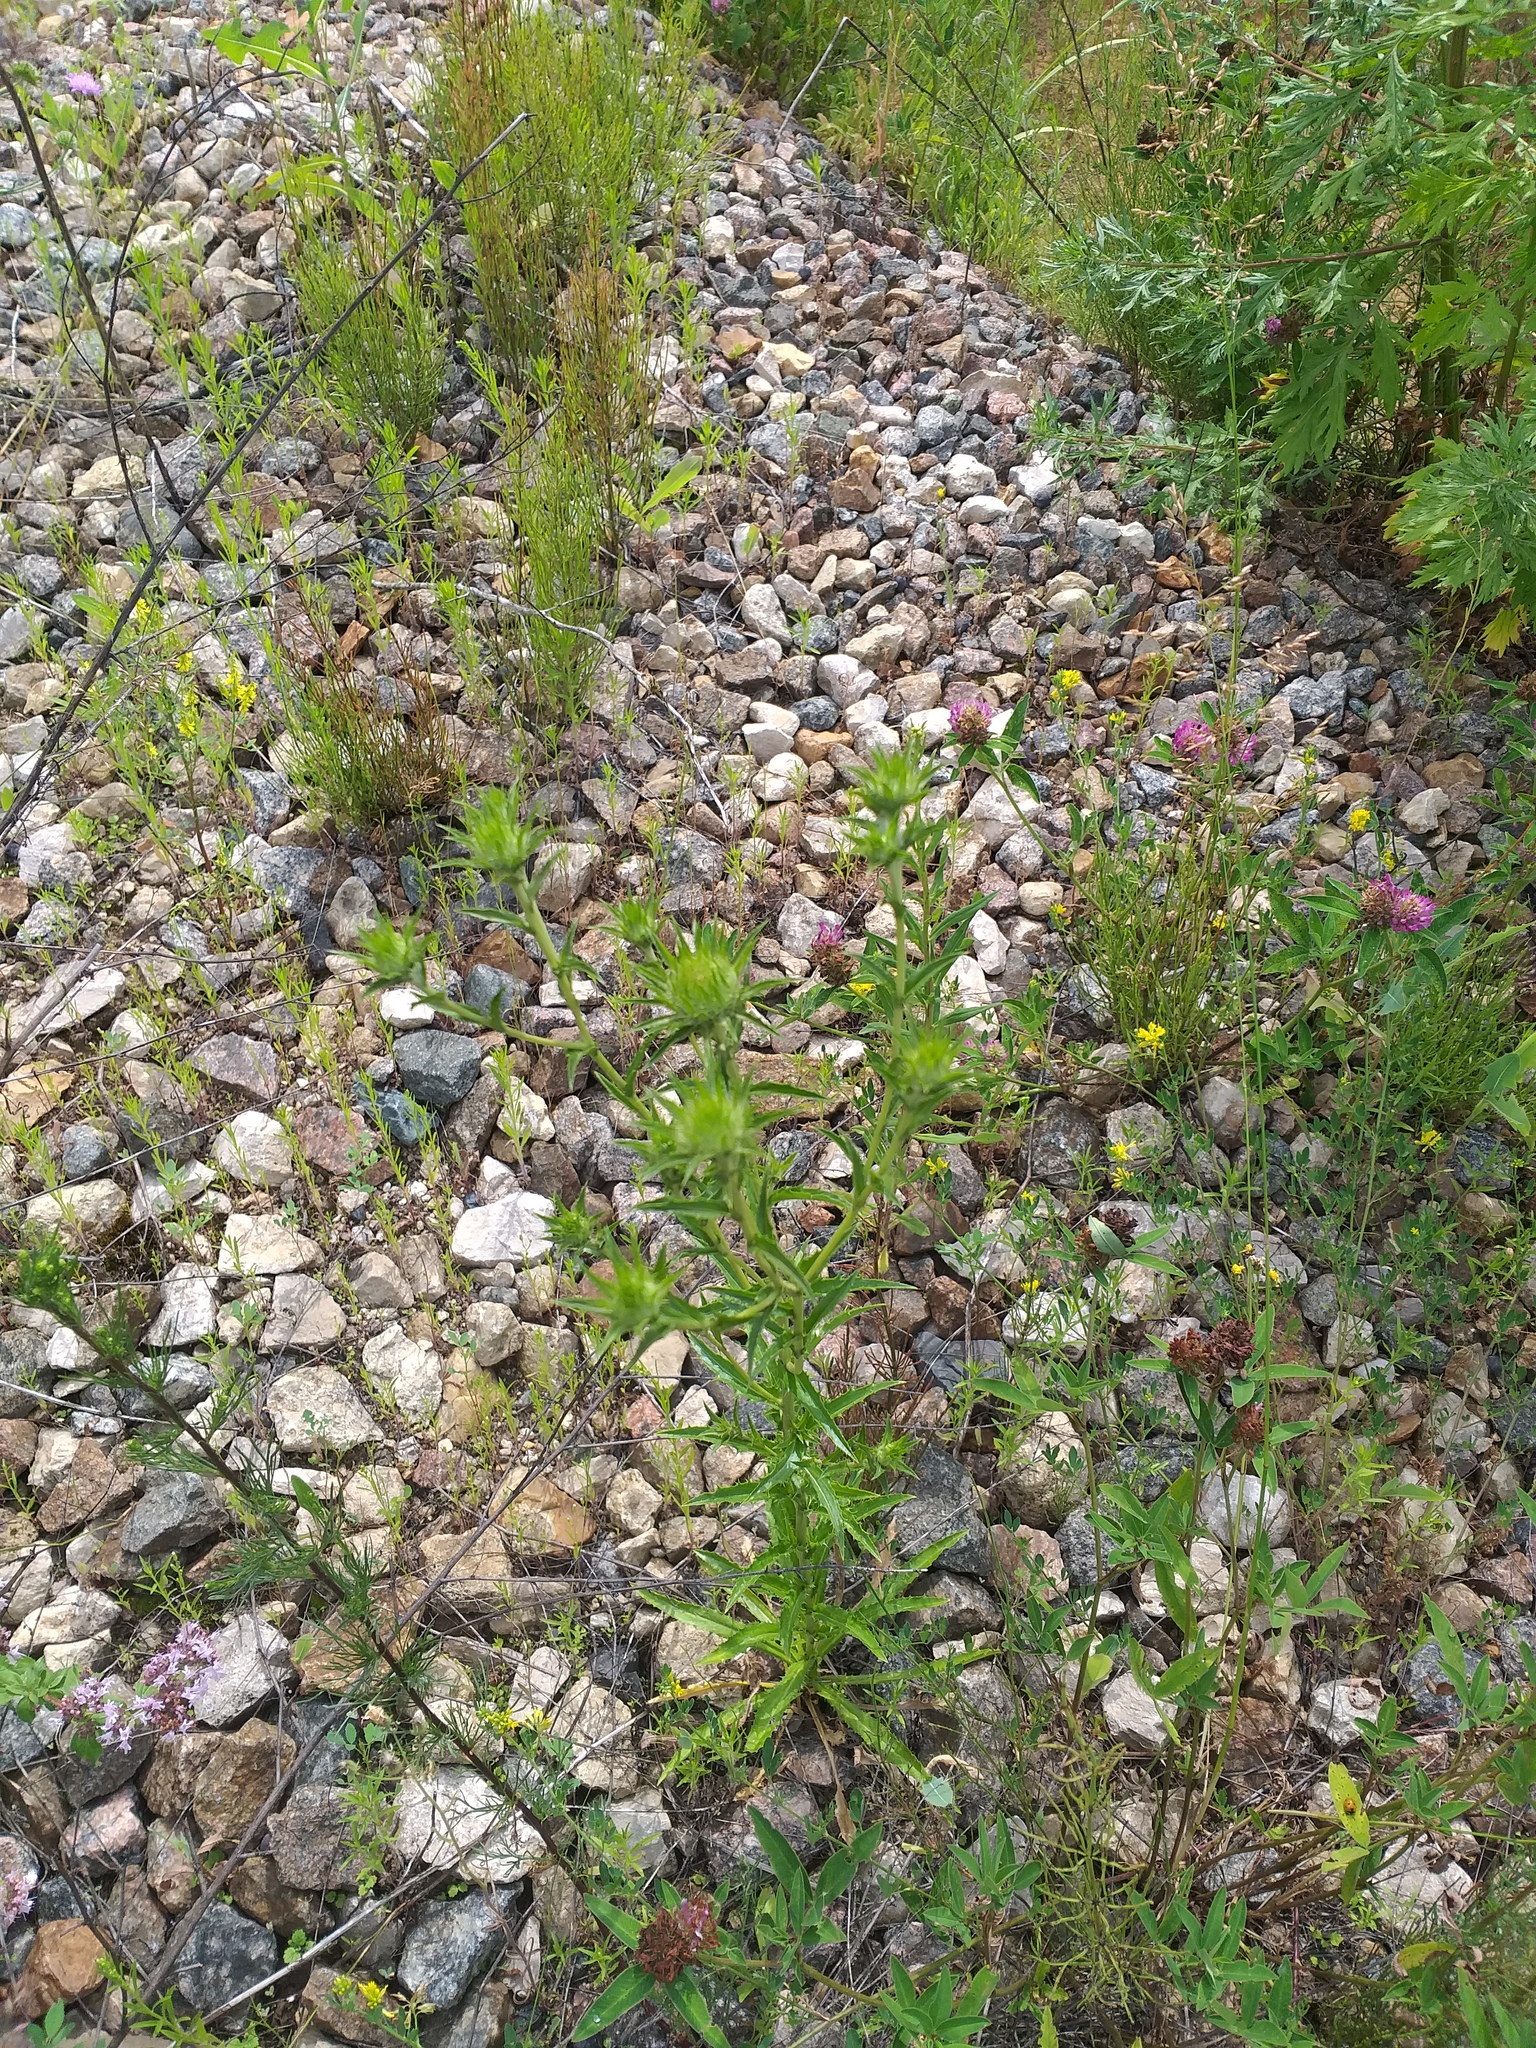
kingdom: Plantae
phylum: Tracheophyta
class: Magnoliopsida
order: Asterales
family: Asteraceae
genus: Carlina
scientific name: Carlina biebersteinii
